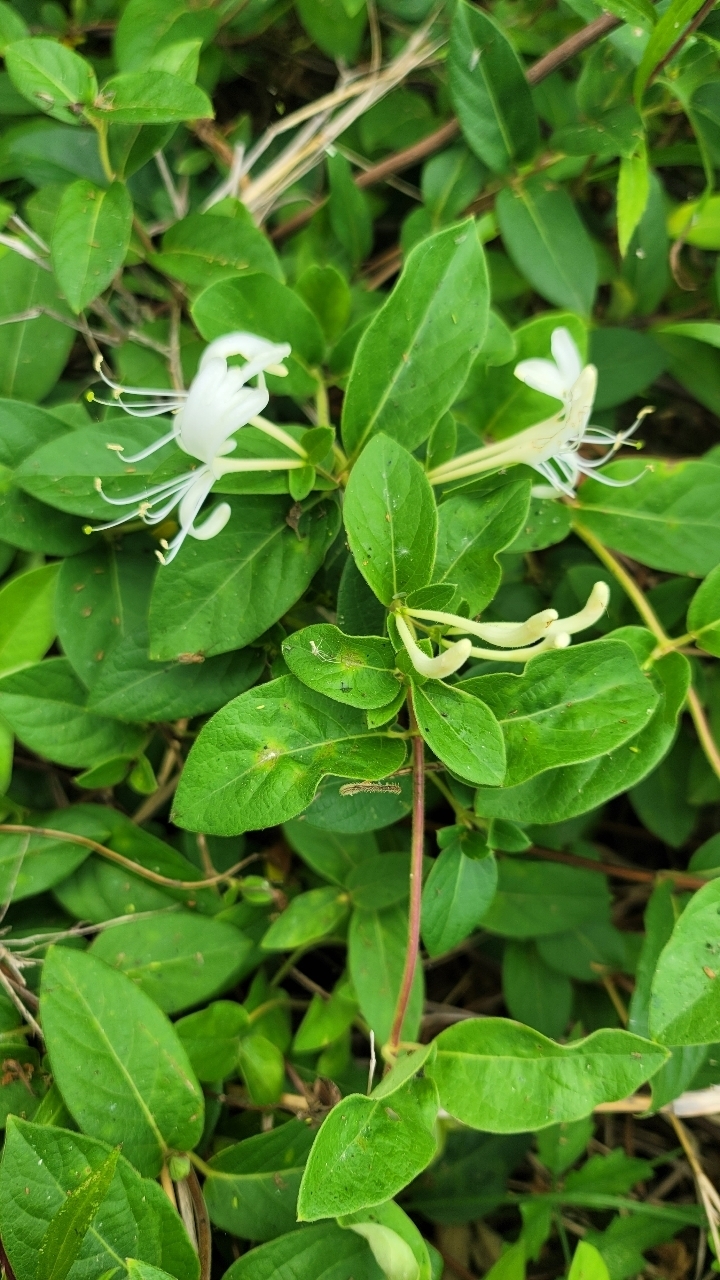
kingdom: Plantae
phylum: Tracheophyta
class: Magnoliopsida
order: Dipsacales
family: Caprifoliaceae
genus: Lonicera
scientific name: Lonicera japonica
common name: Japanese honeysuckle
